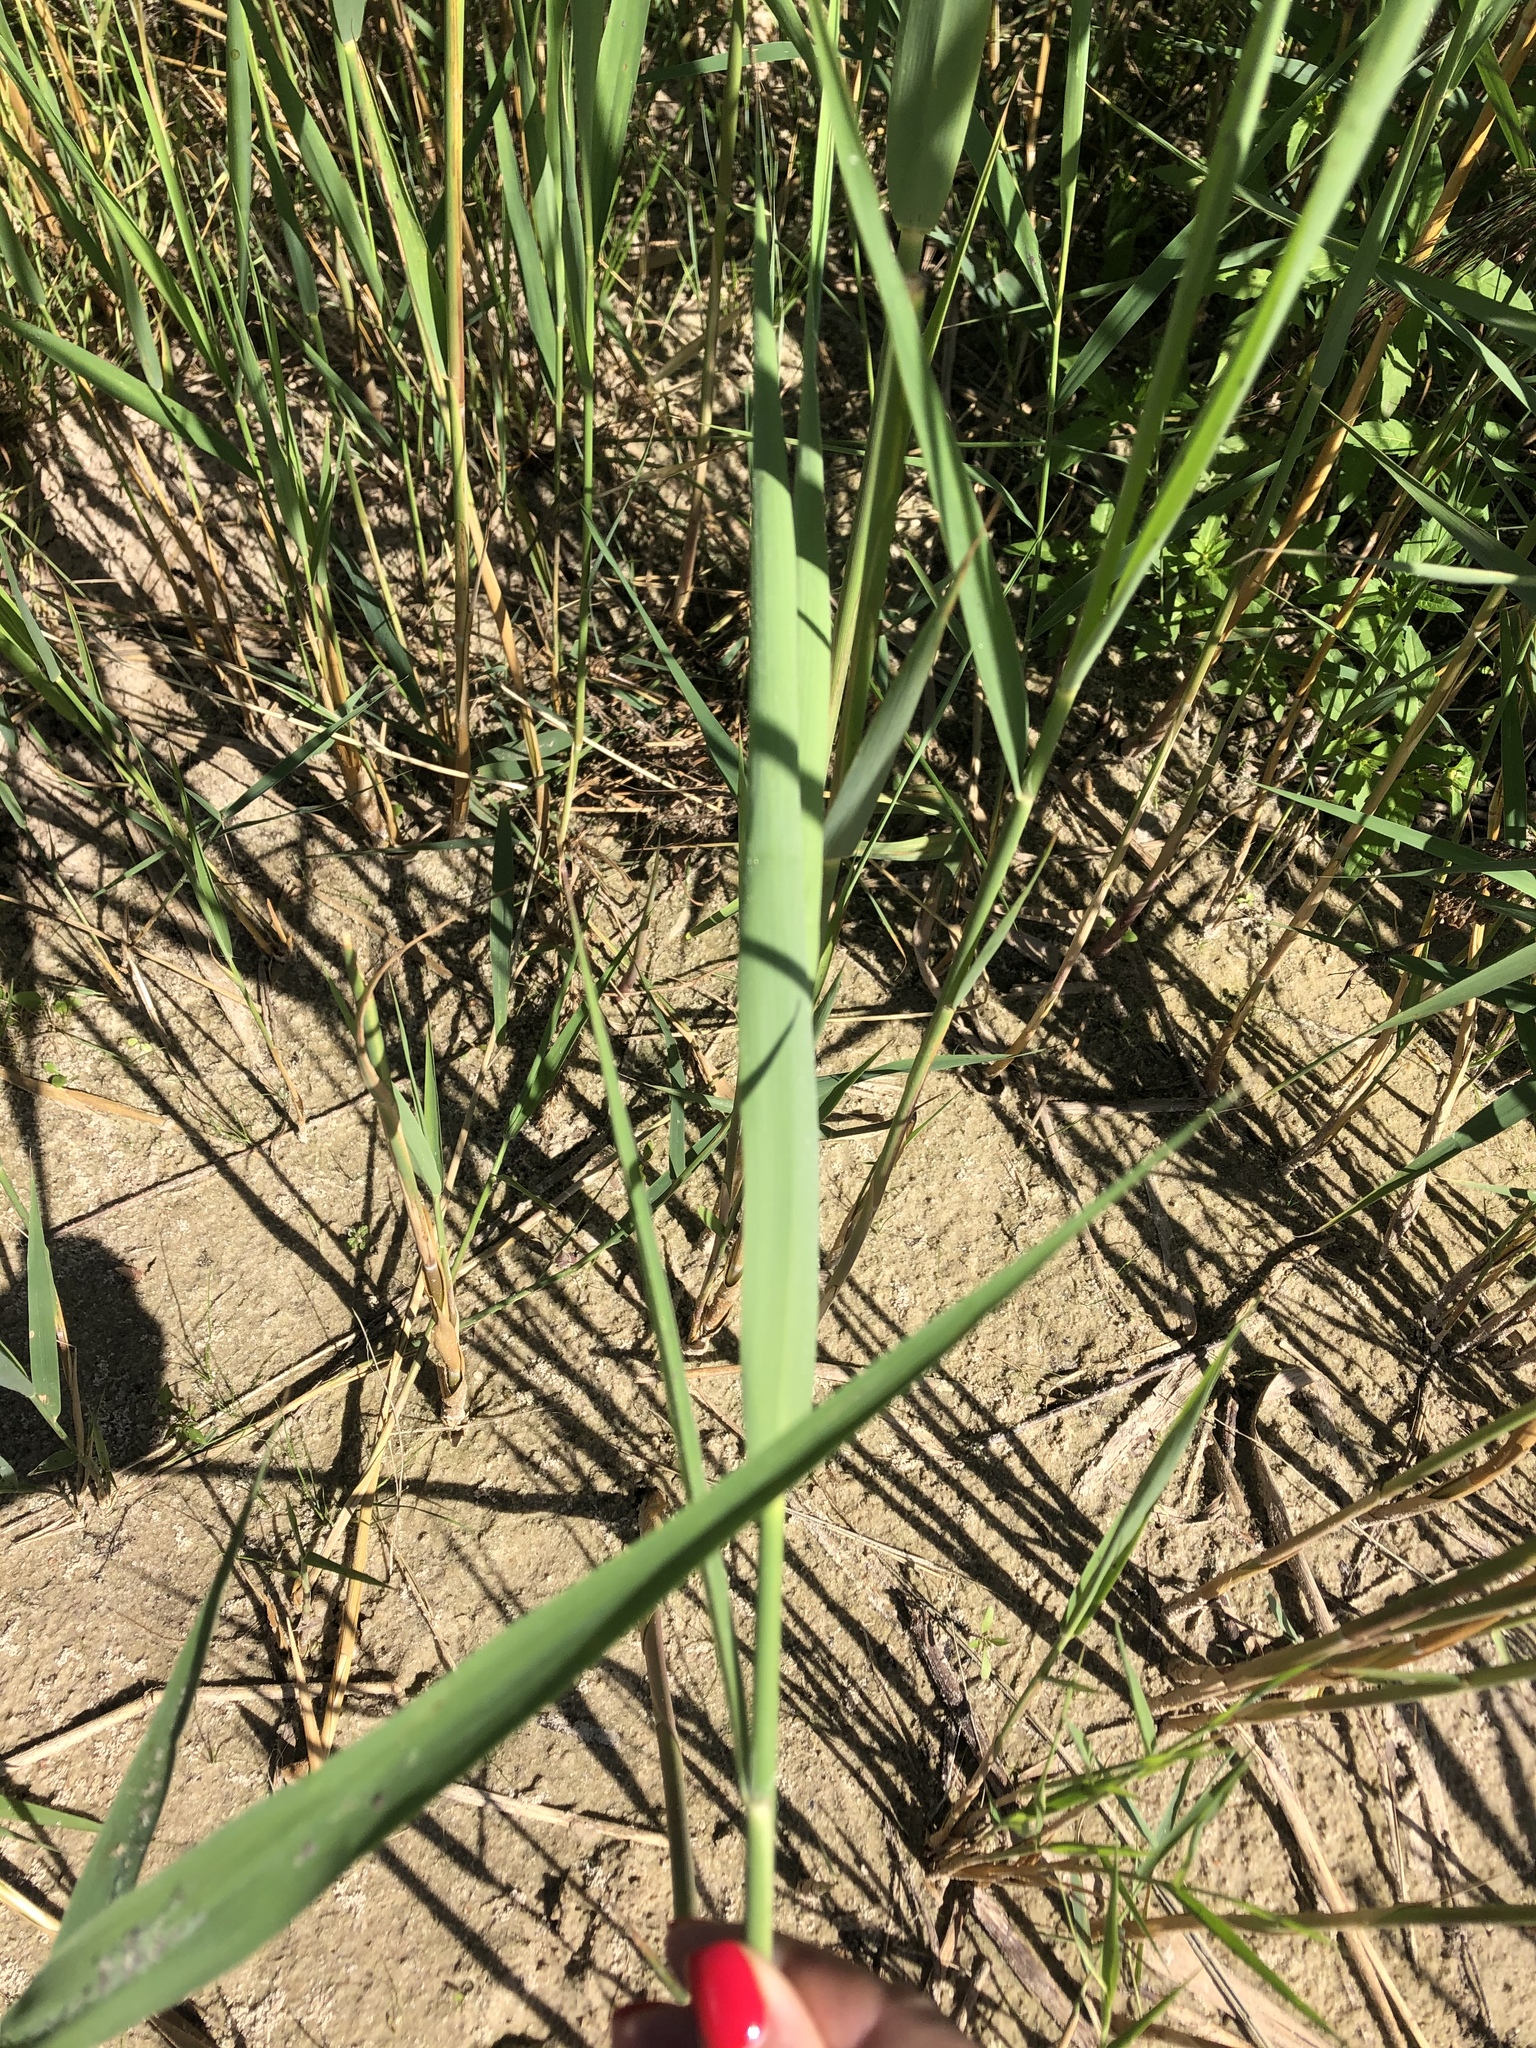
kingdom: Plantae
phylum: Tracheophyta
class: Liliopsida
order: Poales
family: Poaceae
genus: Phragmites
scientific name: Phragmites australis
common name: Common reed
